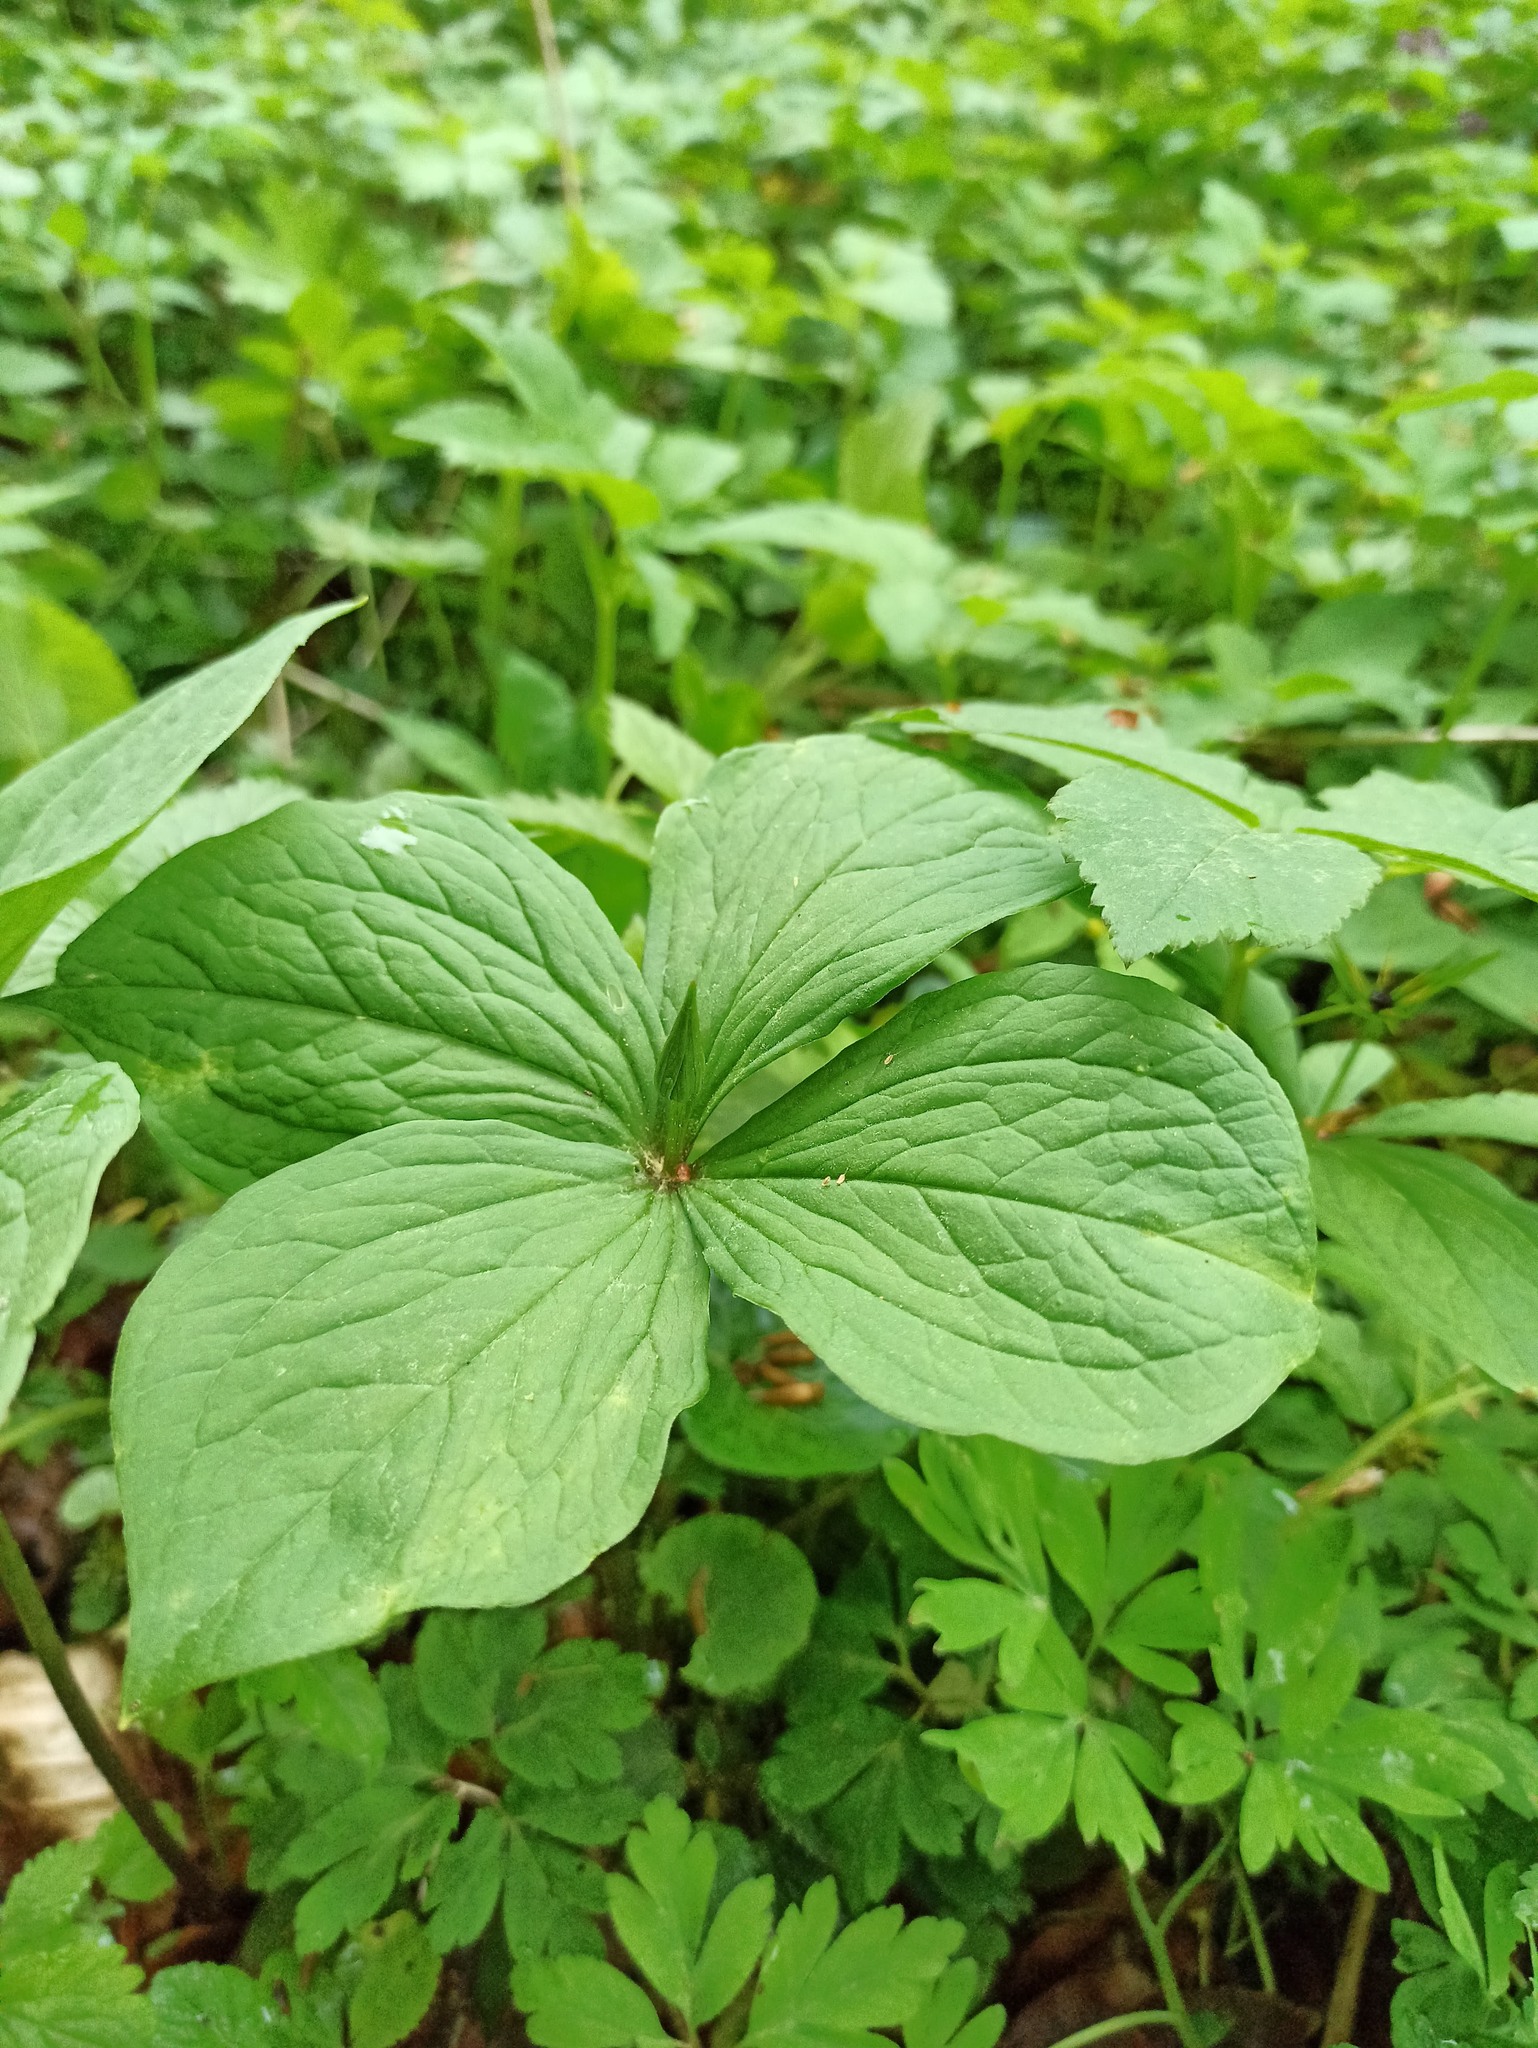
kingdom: Plantae
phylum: Tracheophyta
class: Liliopsida
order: Liliales
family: Melanthiaceae
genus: Paris
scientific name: Paris quadrifolia
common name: Herb-paris
